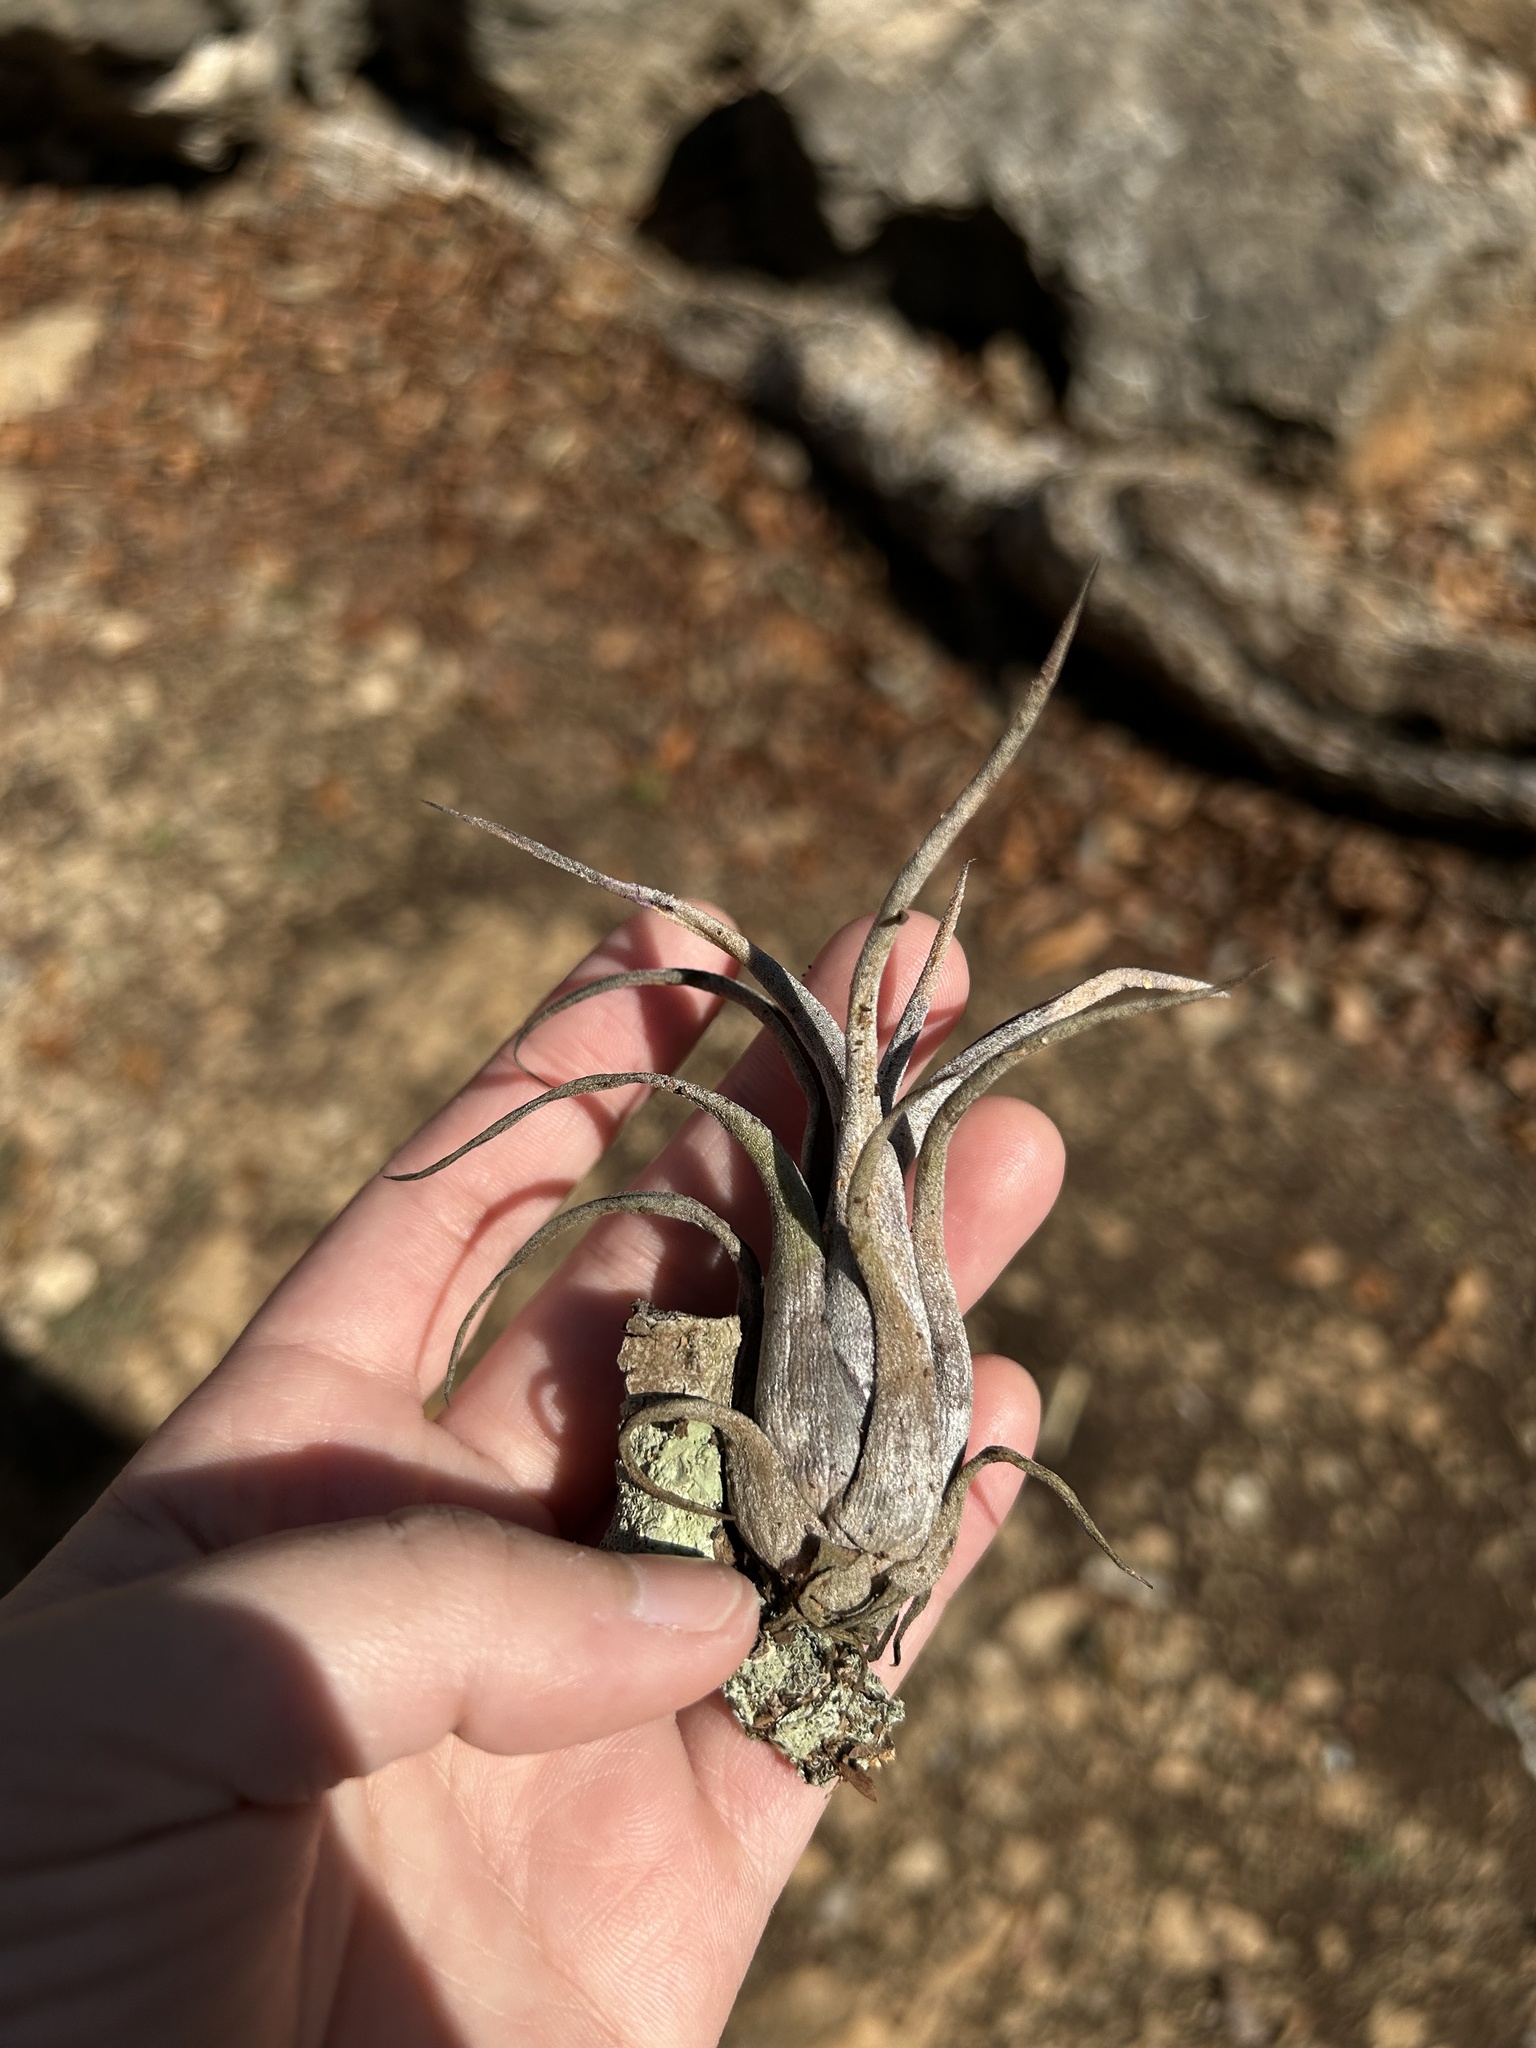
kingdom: Plantae
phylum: Tracheophyta
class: Liliopsida
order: Poales
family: Bromeliaceae
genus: Tillandsia
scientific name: Tillandsia paucifolia
